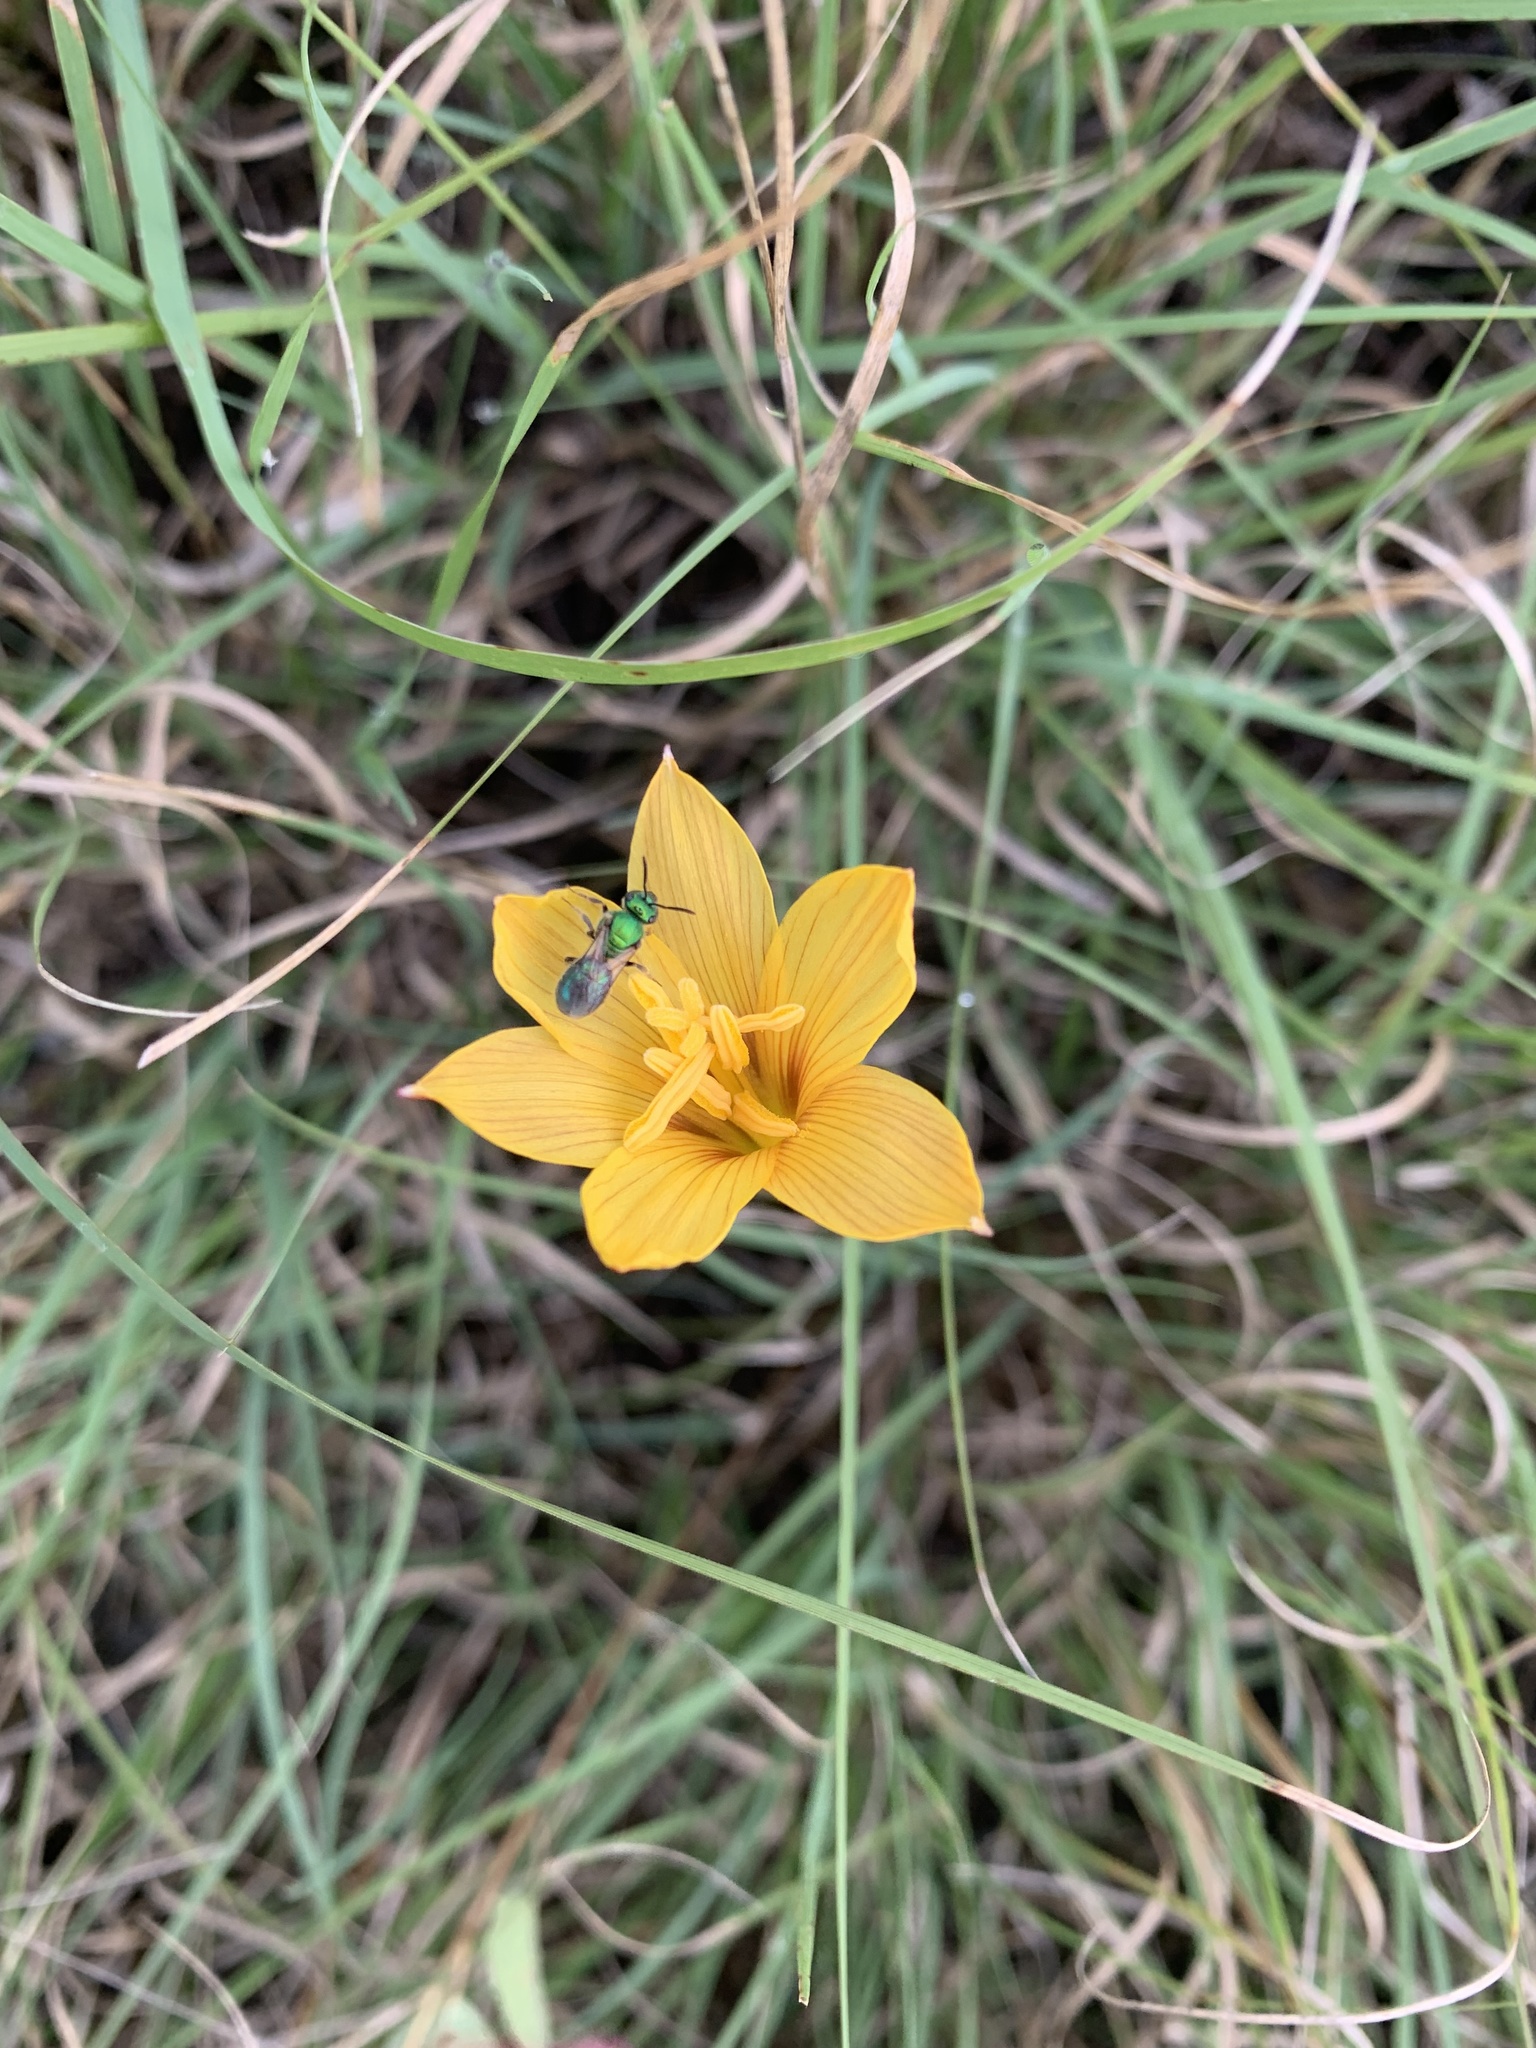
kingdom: Plantae
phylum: Tracheophyta
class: Liliopsida
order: Asparagales
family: Amaryllidaceae
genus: Zephyranthes
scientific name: Zephyranthes tubispatha
